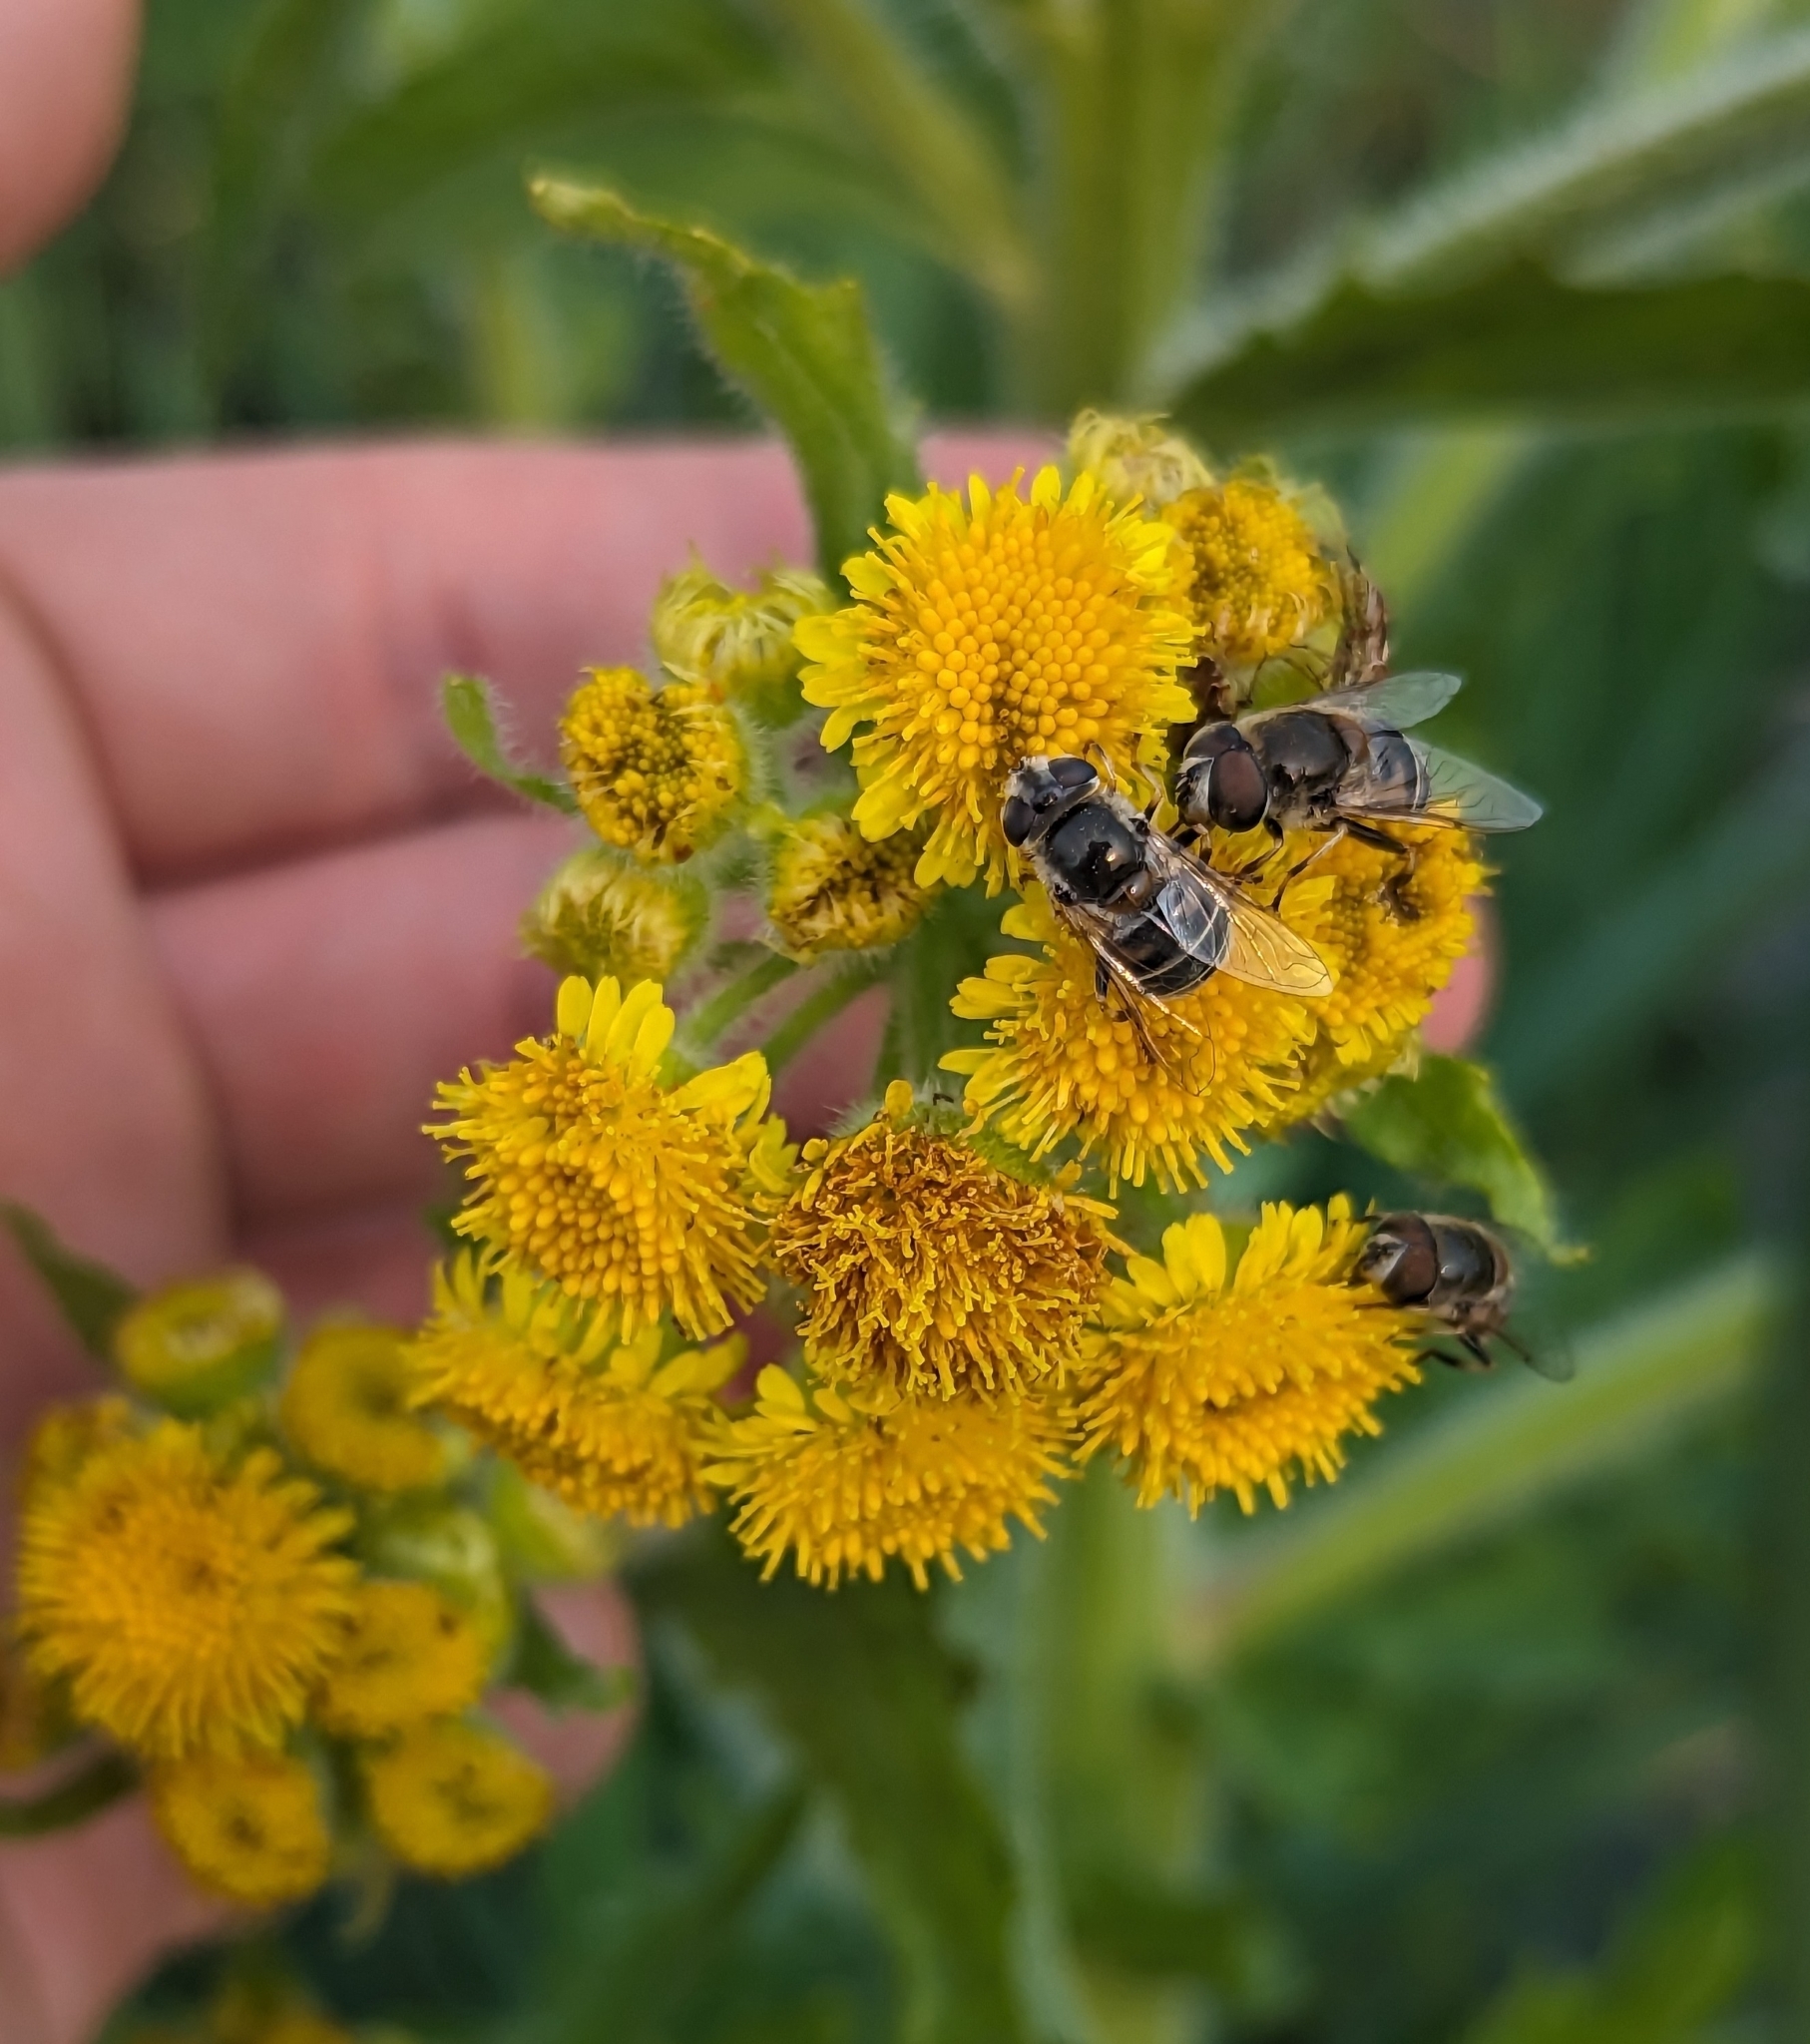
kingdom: Plantae
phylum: Tracheophyta
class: Magnoliopsida
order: Asterales
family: Asteraceae
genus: Tephroseris
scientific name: Tephroseris palustris
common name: Marsh fleawort
